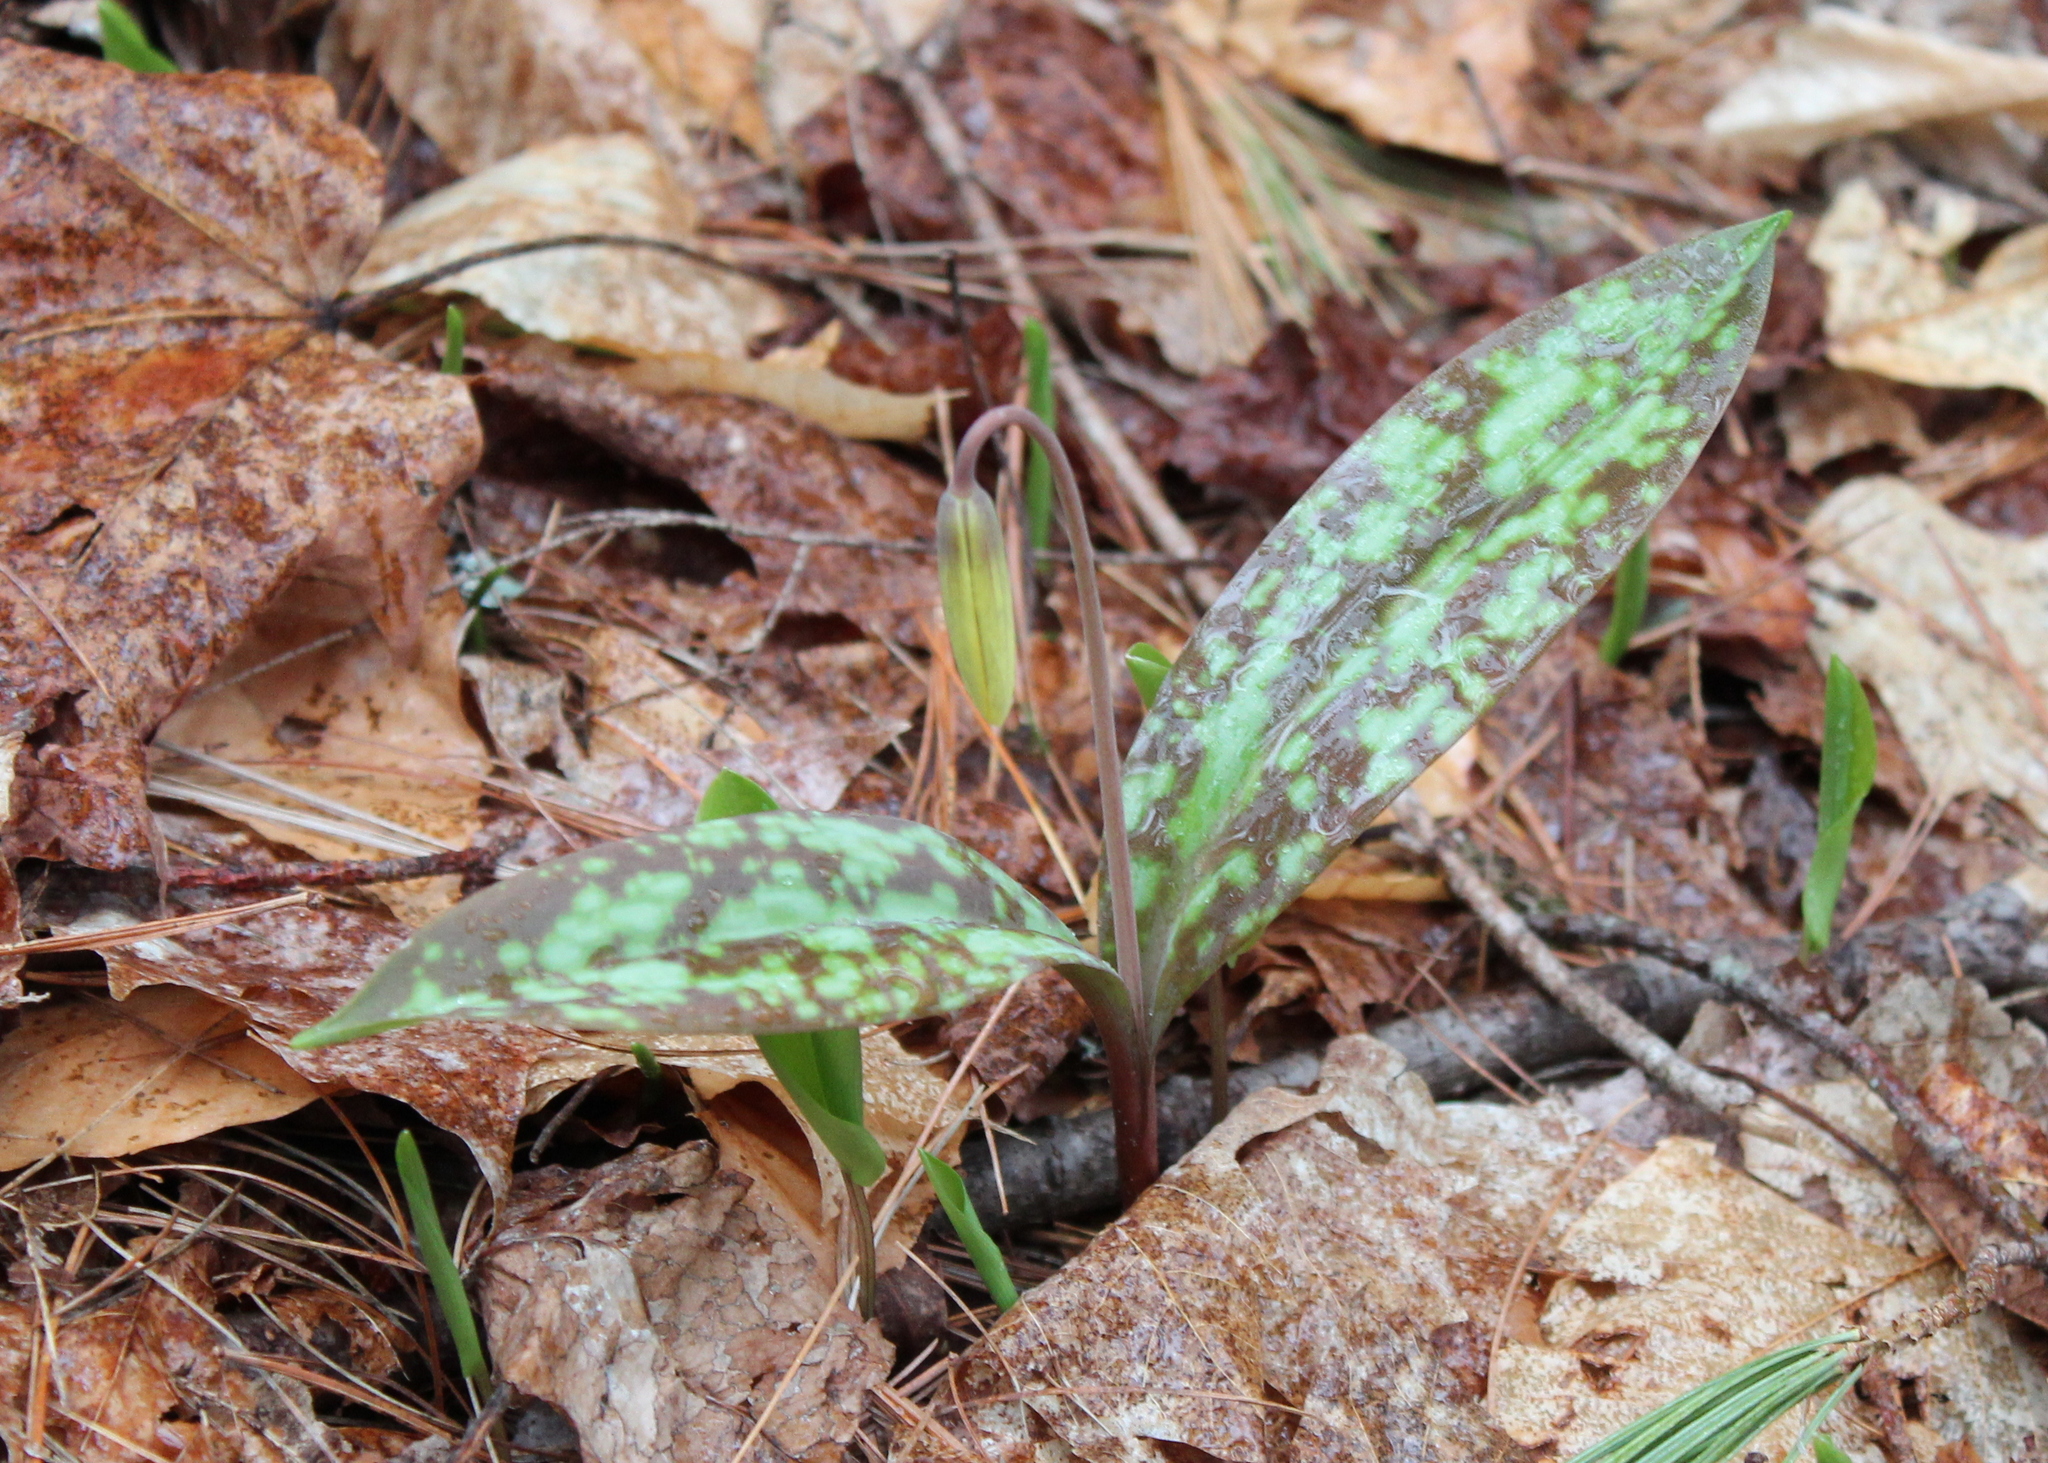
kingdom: Plantae
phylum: Tracheophyta
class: Liliopsida
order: Liliales
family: Liliaceae
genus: Erythronium
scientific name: Erythronium americanum
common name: Yellow adder's-tongue
